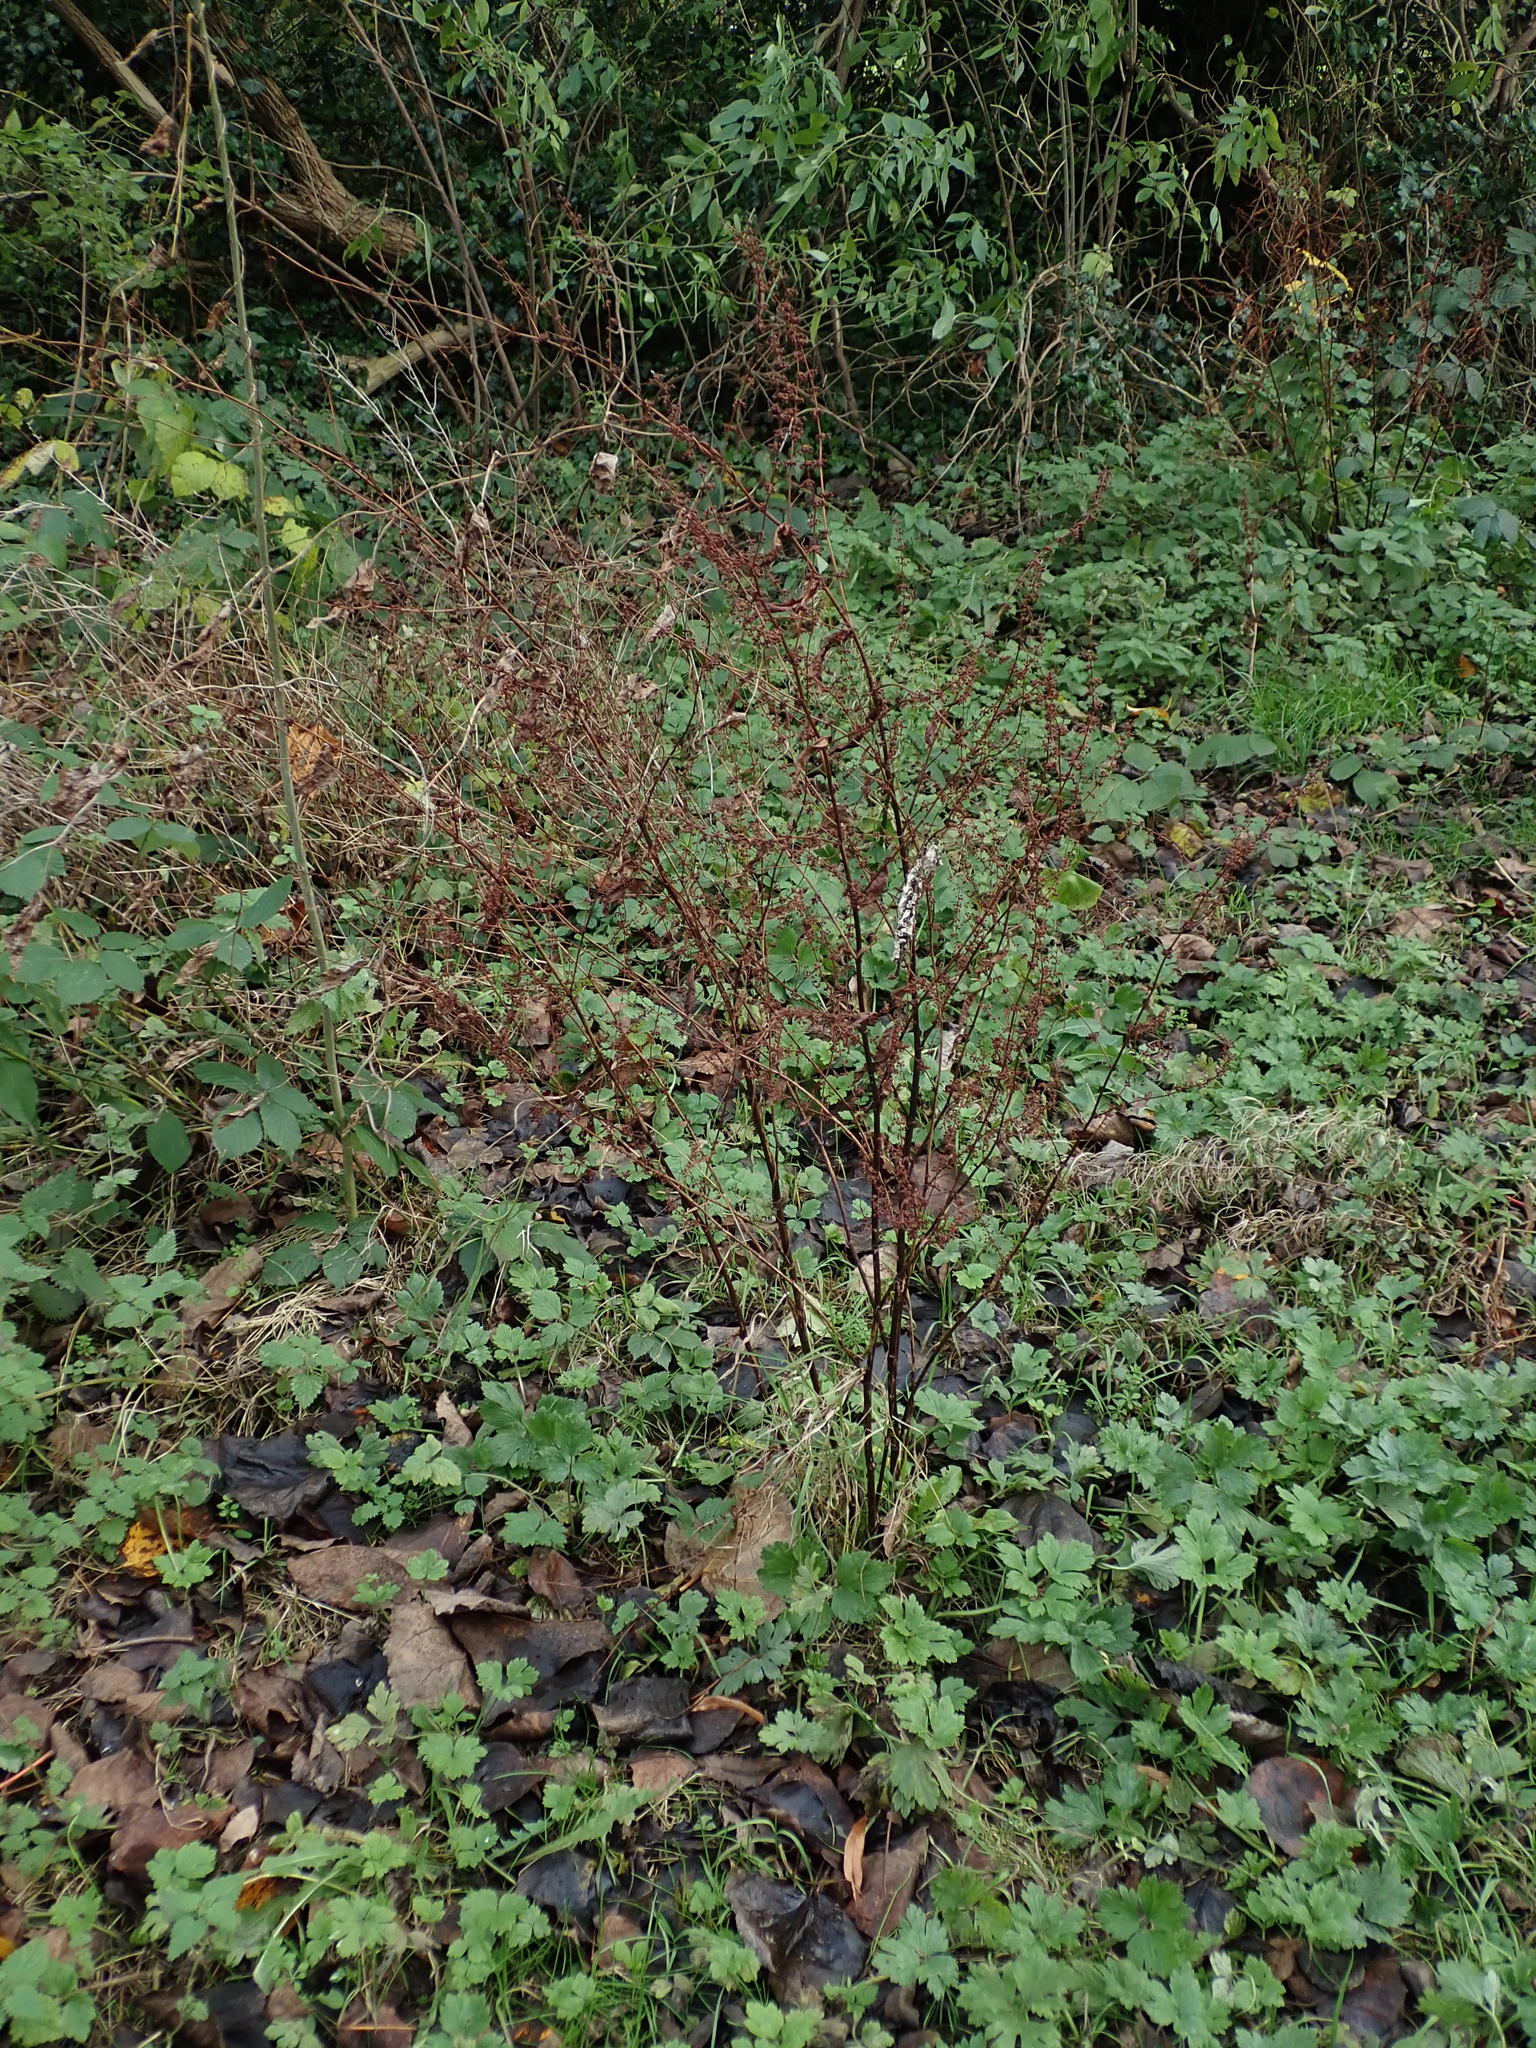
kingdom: Plantae
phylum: Tracheophyta
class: Magnoliopsida
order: Caryophyllales
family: Polygonaceae
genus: Rumex
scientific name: Rumex sanguineus
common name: Wood dock
